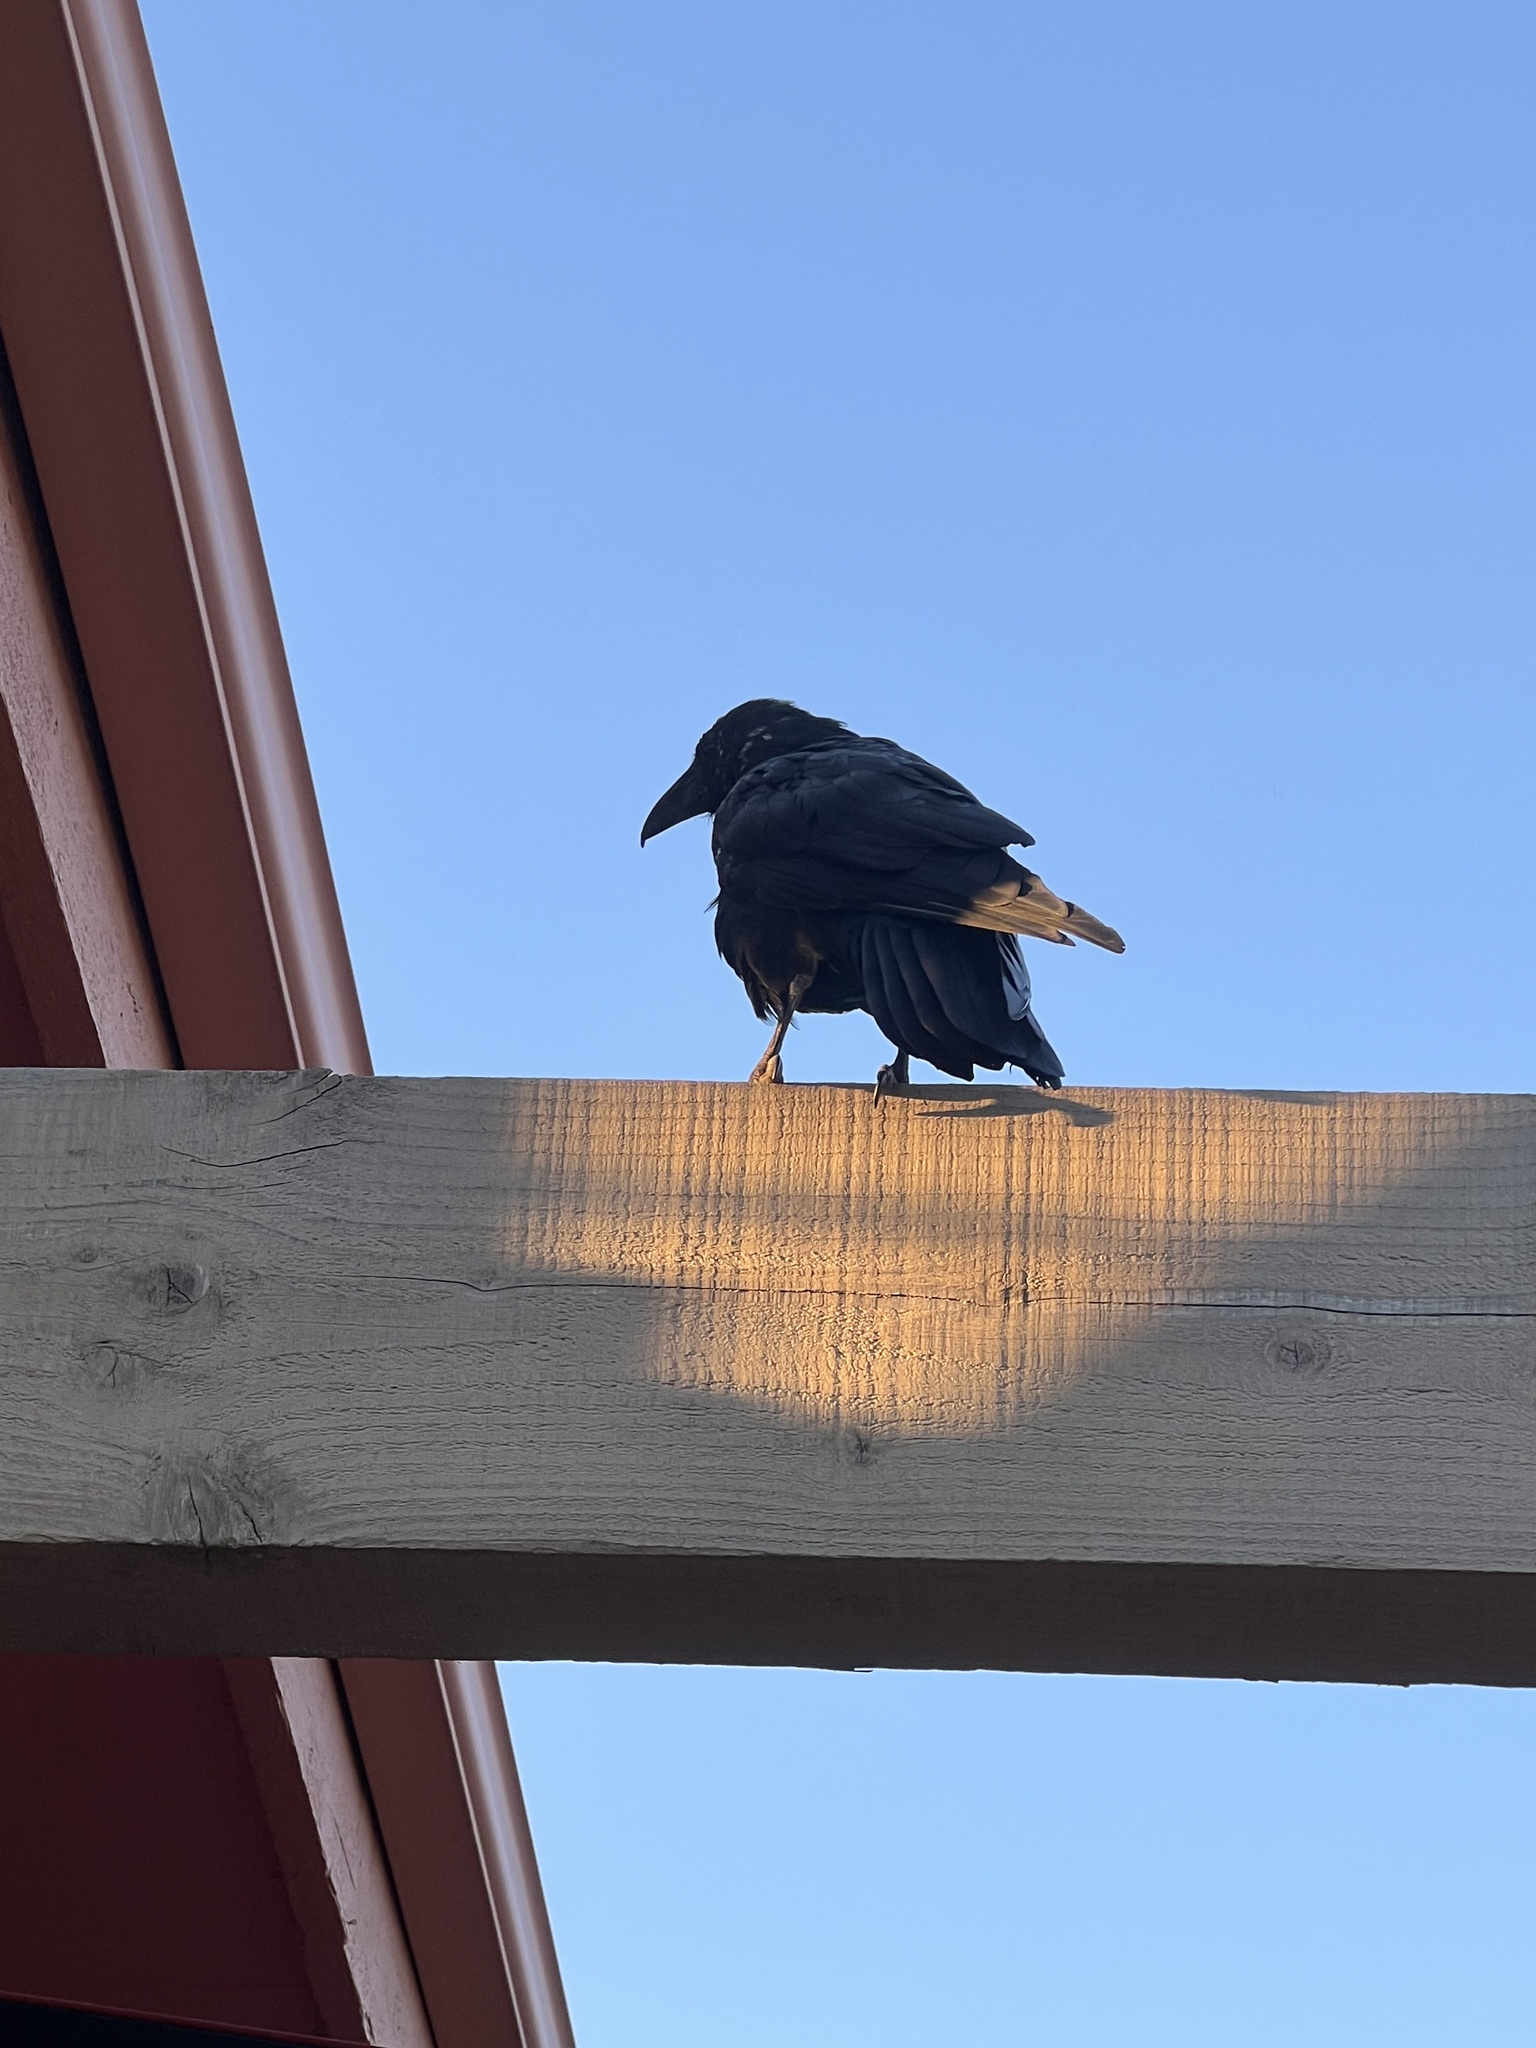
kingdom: Animalia
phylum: Chordata
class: Aves
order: Passeriformes
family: Corvidae
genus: Corvus
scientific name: Corvus corax
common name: Common raven
